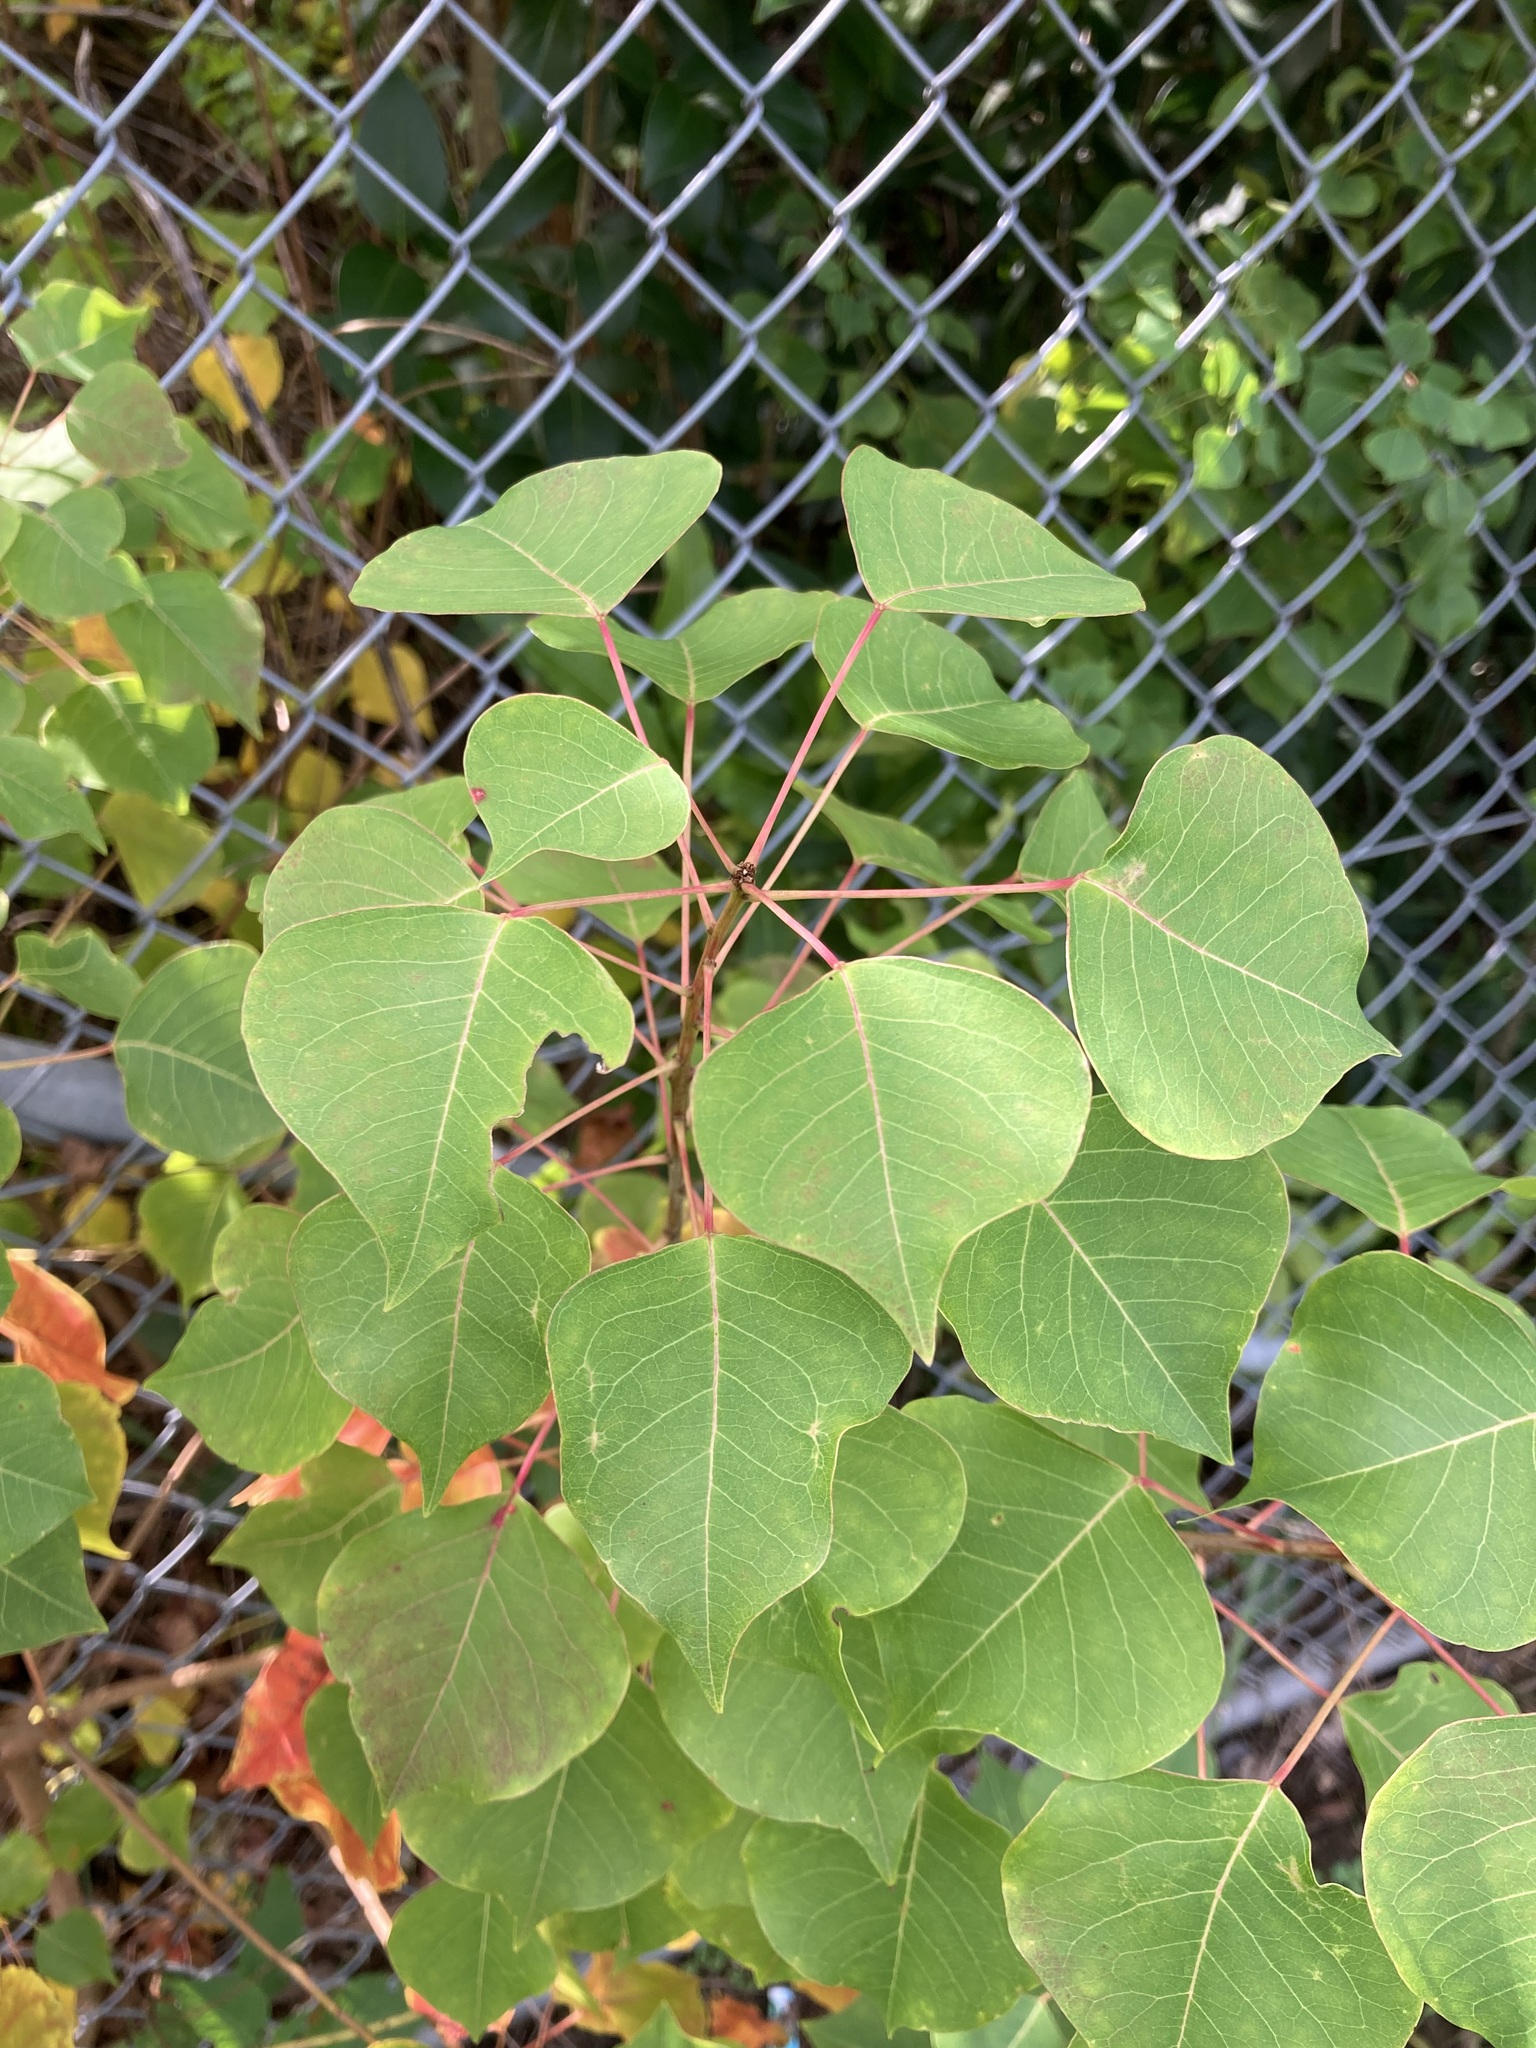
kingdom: Plantae
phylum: Tracheophyta
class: Magnoliopsida
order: Malpighiales
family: Euphorbiaceae
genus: Triadica
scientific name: Triadica sebifera
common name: Chinese tallow
